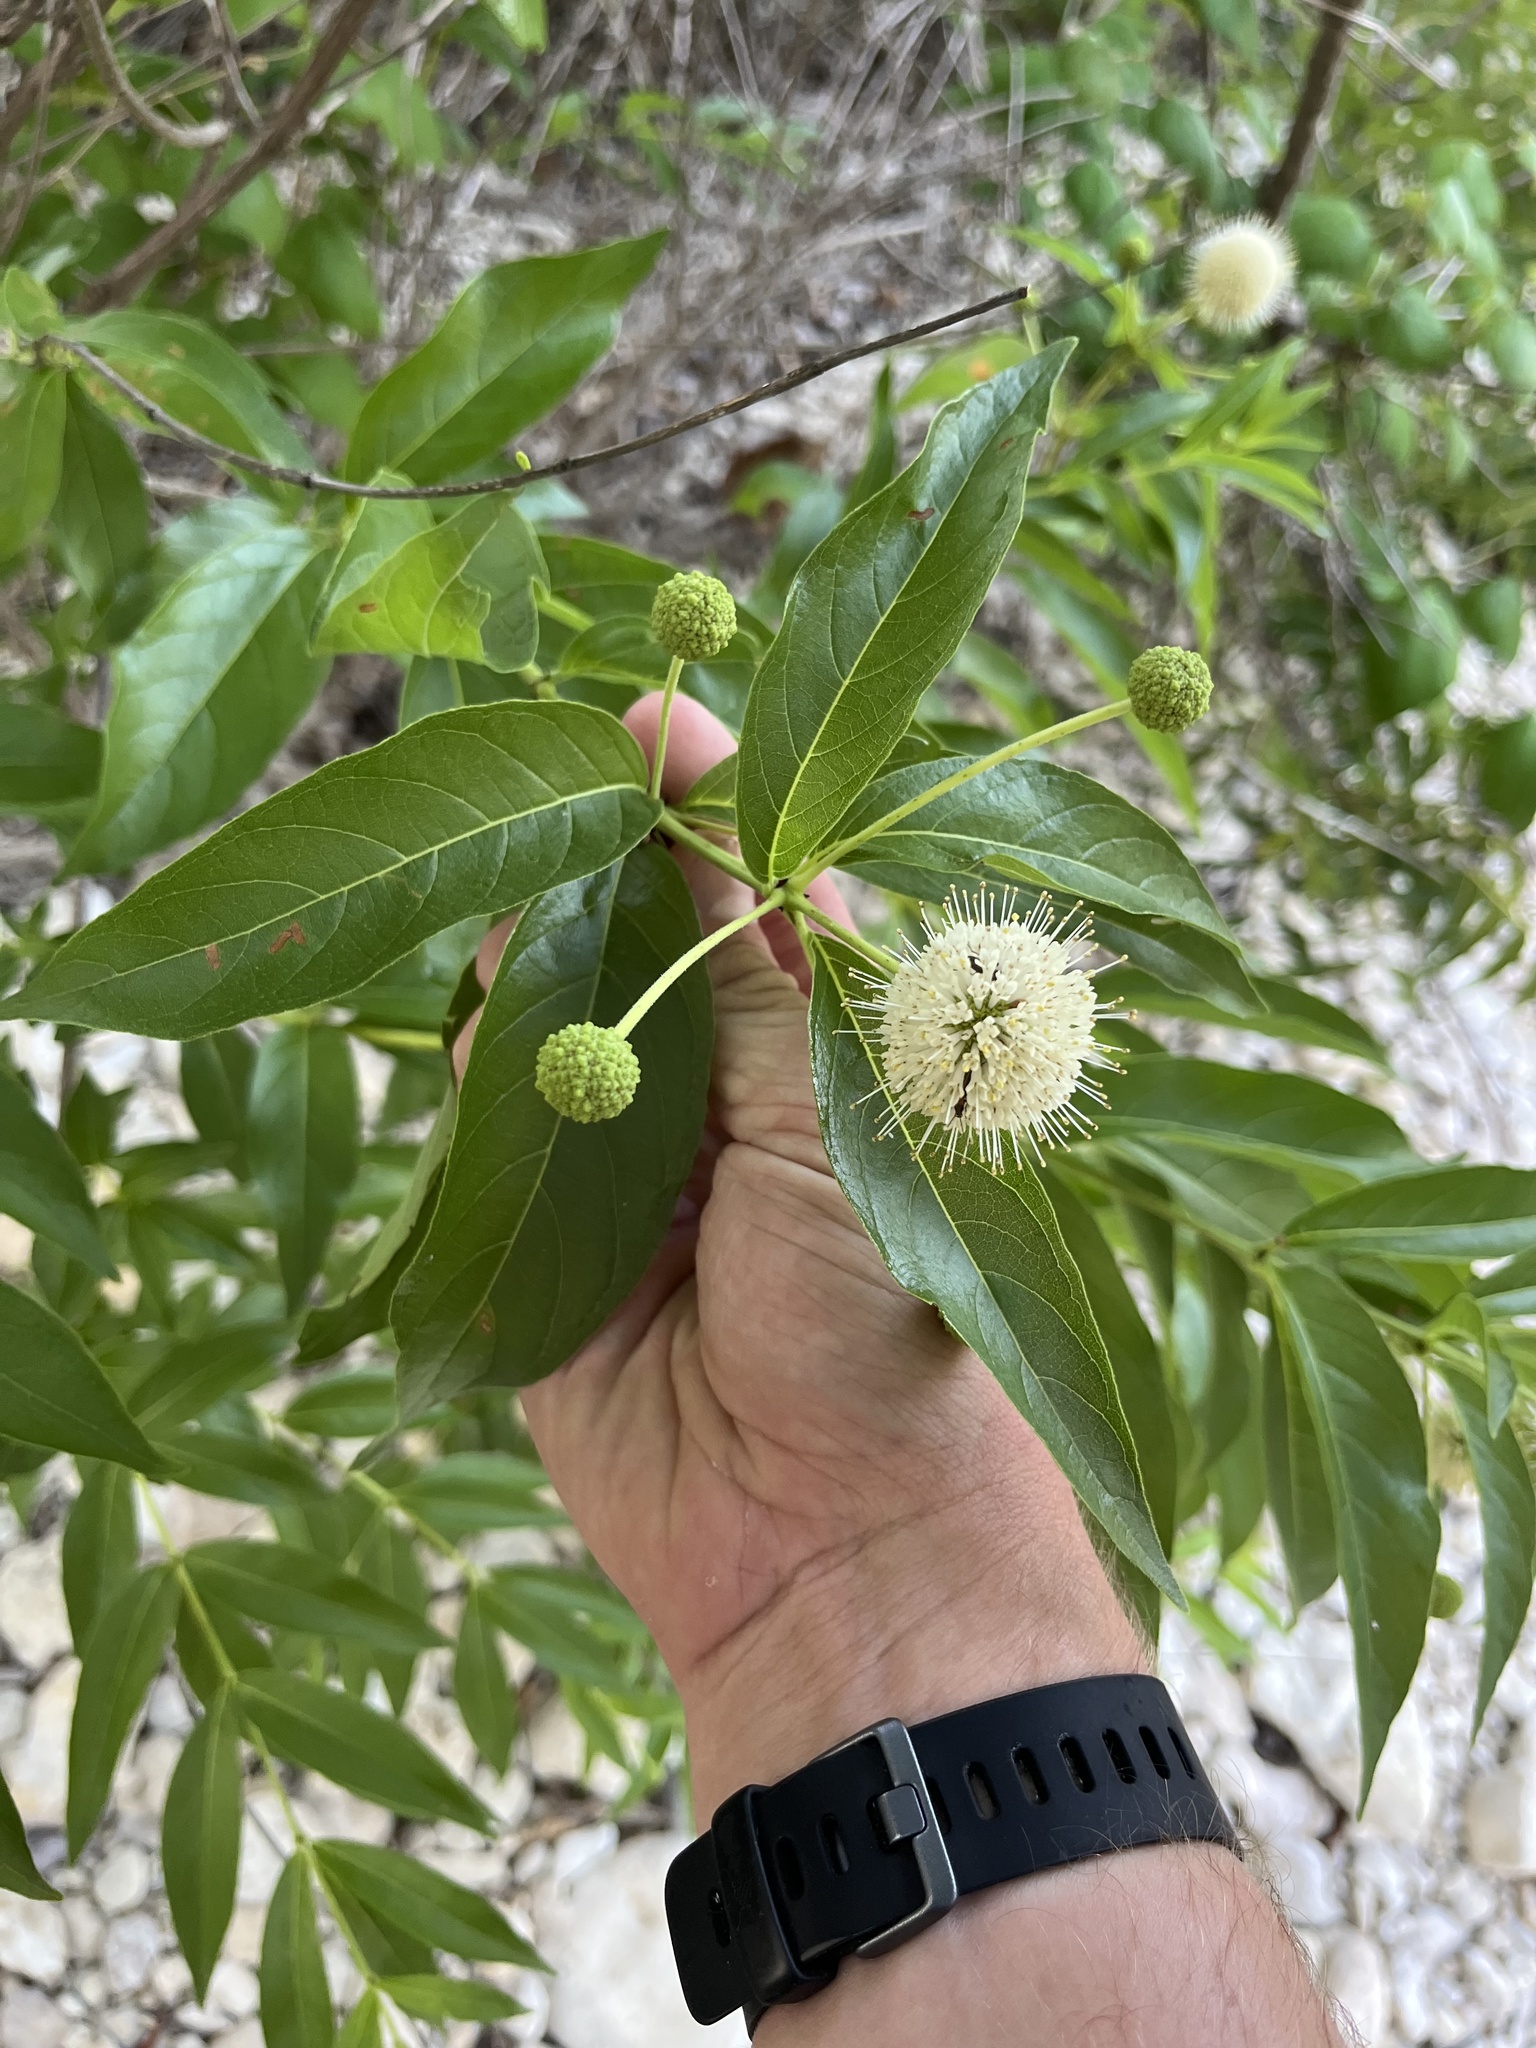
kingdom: Plantae
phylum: Tracheophyta
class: Magnoliopsida
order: Gentianales
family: Rubiaceae
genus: Cephalanthus
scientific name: Cephalanthus occidentalis
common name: Button-willow
